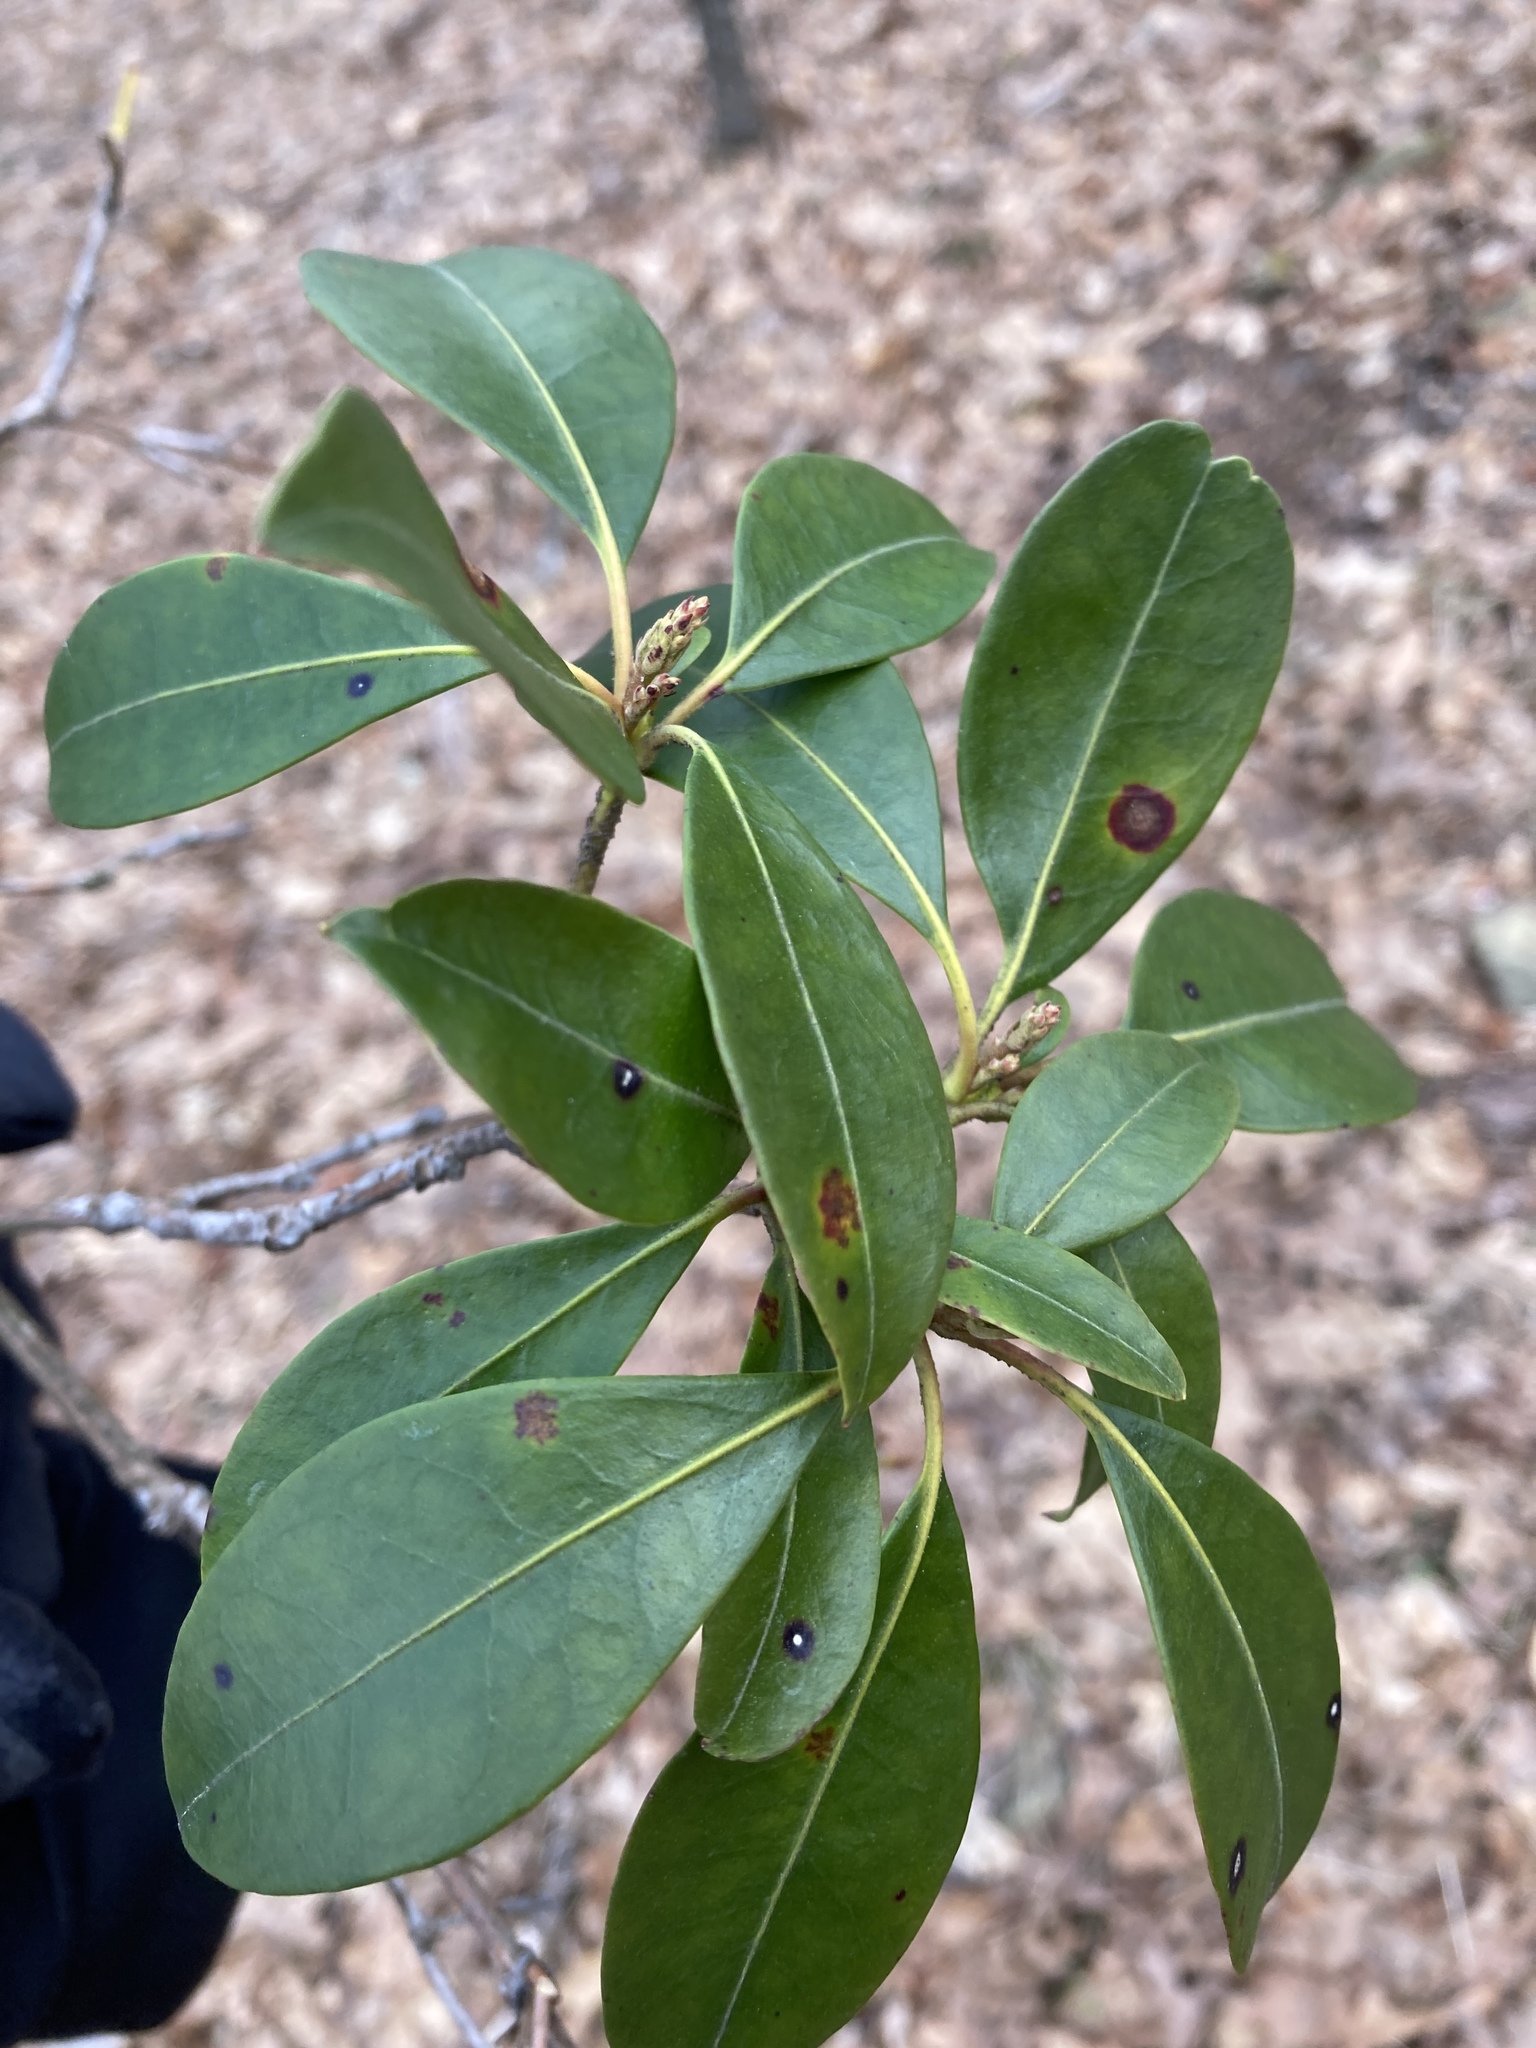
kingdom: Plantae
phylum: Tracheophyta
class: Magnoliopsida
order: Ericales
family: Ericaceae
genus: Kalmia
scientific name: Kalmia latifolia
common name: Mountain-laurel
